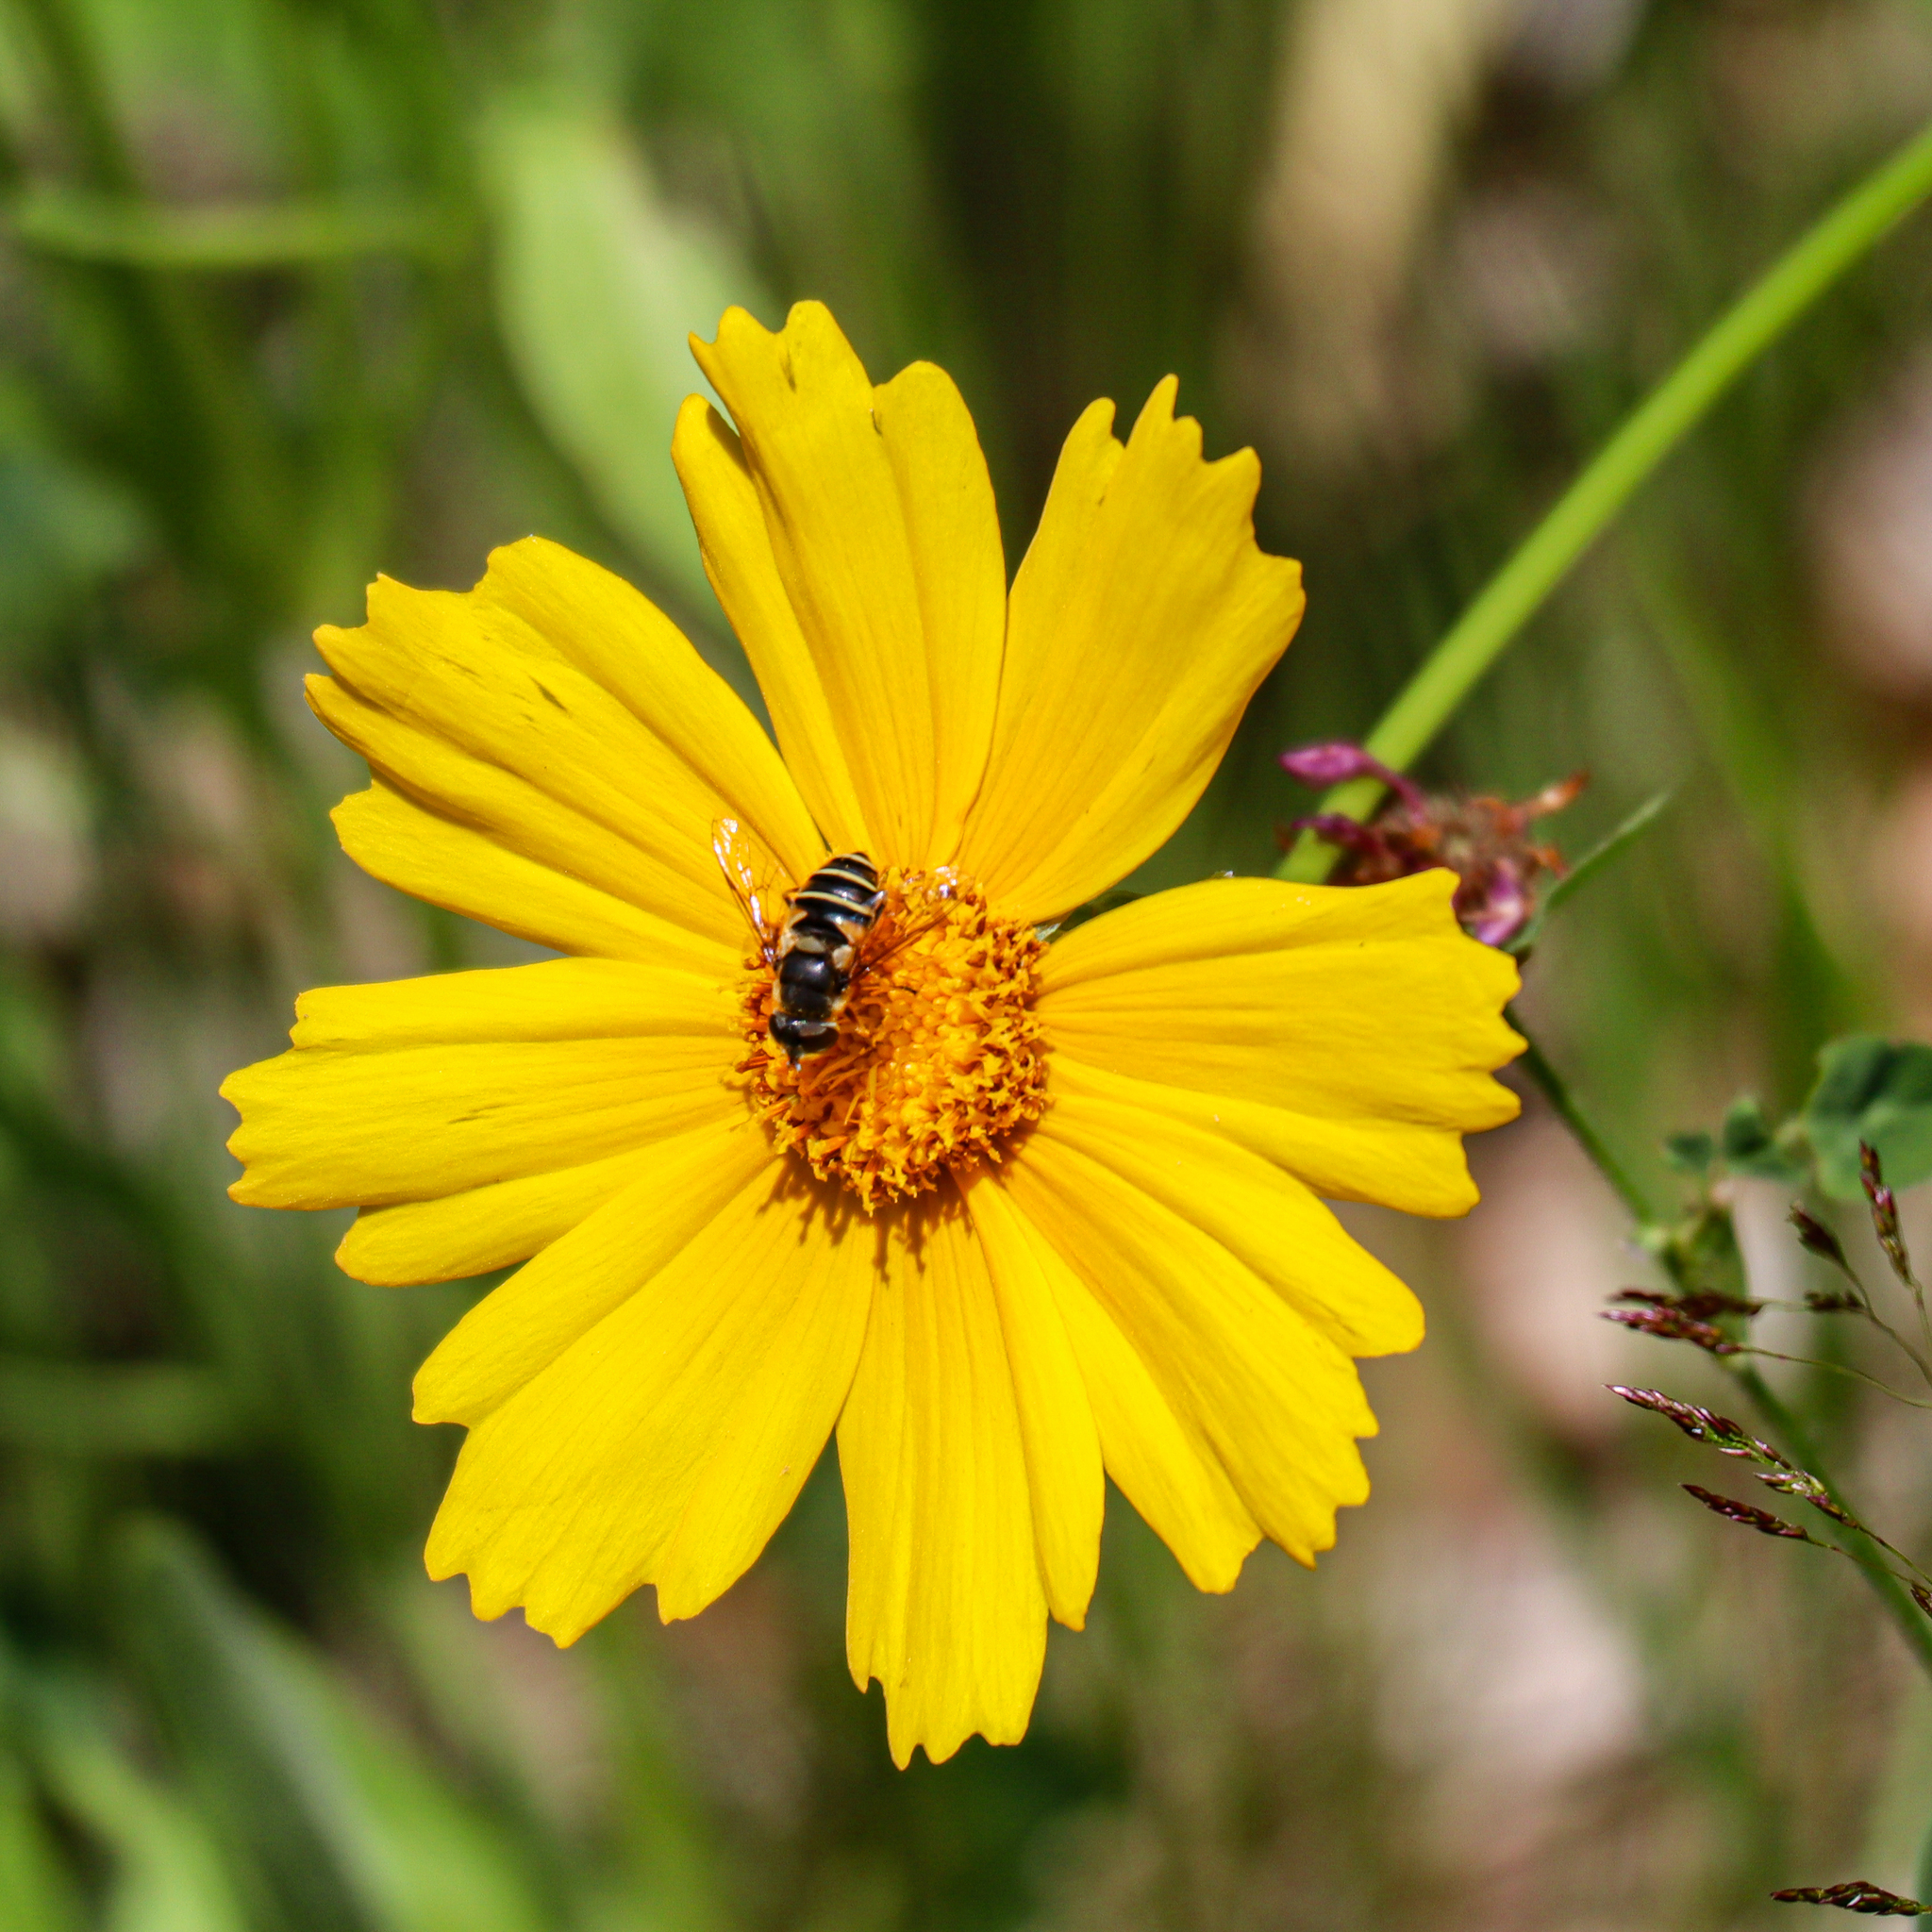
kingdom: Animalia
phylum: Arthropoda
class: Insecta
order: Diptera
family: Syrphidae
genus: Eristalis
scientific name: Eristalis transversa
